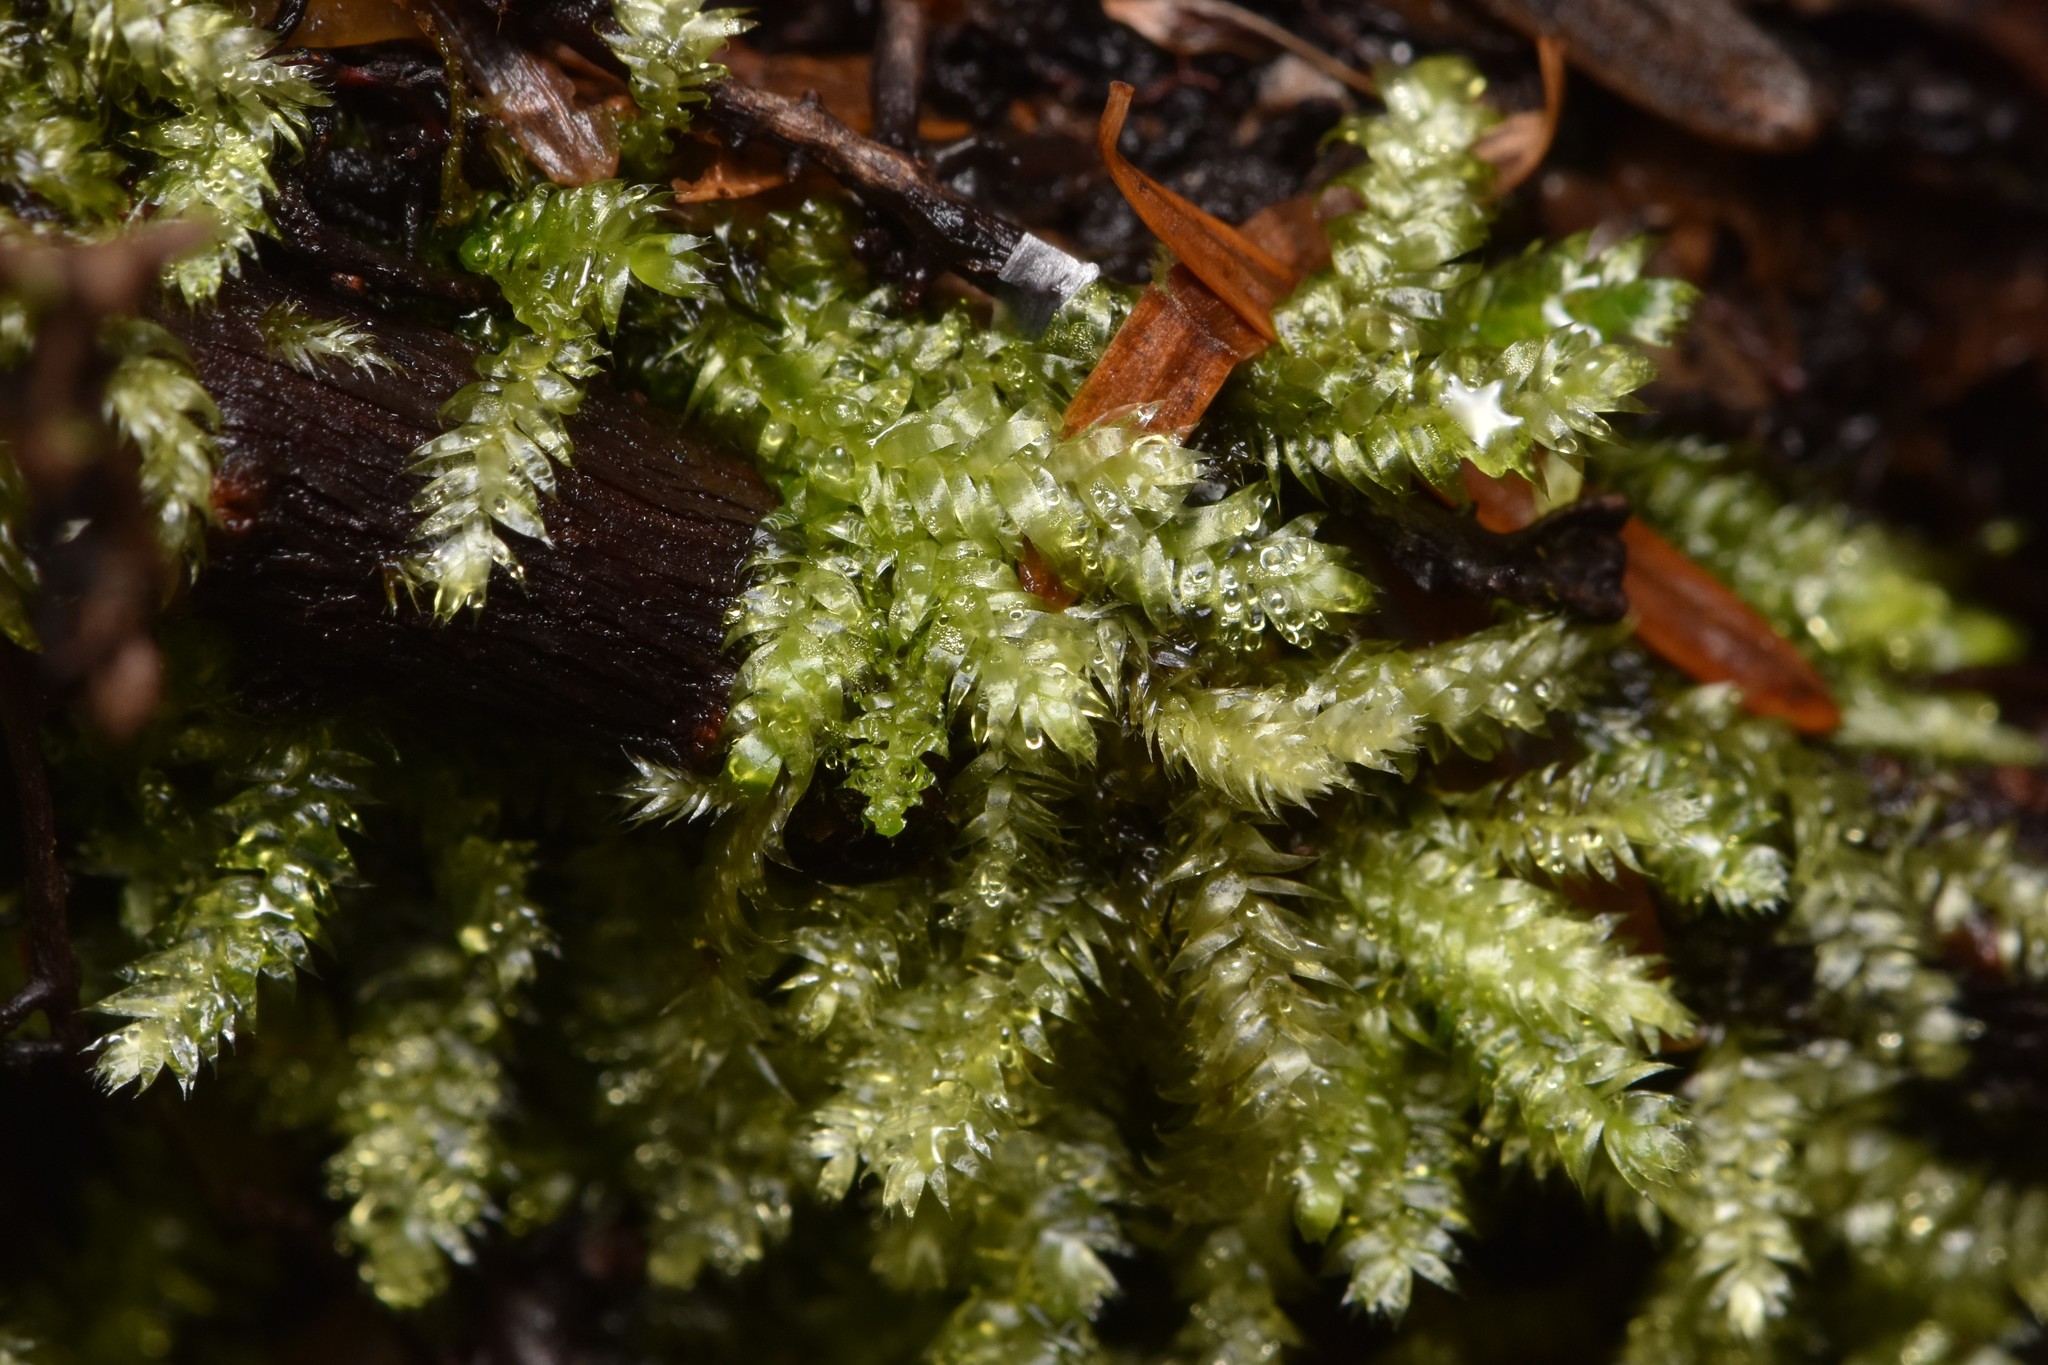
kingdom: Plantae
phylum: Bryophyta
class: Bryopsida
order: Hypnales
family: Plagiotheciaceae
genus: Pseudotaxiphyllum
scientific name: Pseudotaxiphyllum elegans
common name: Elegant silk moss
